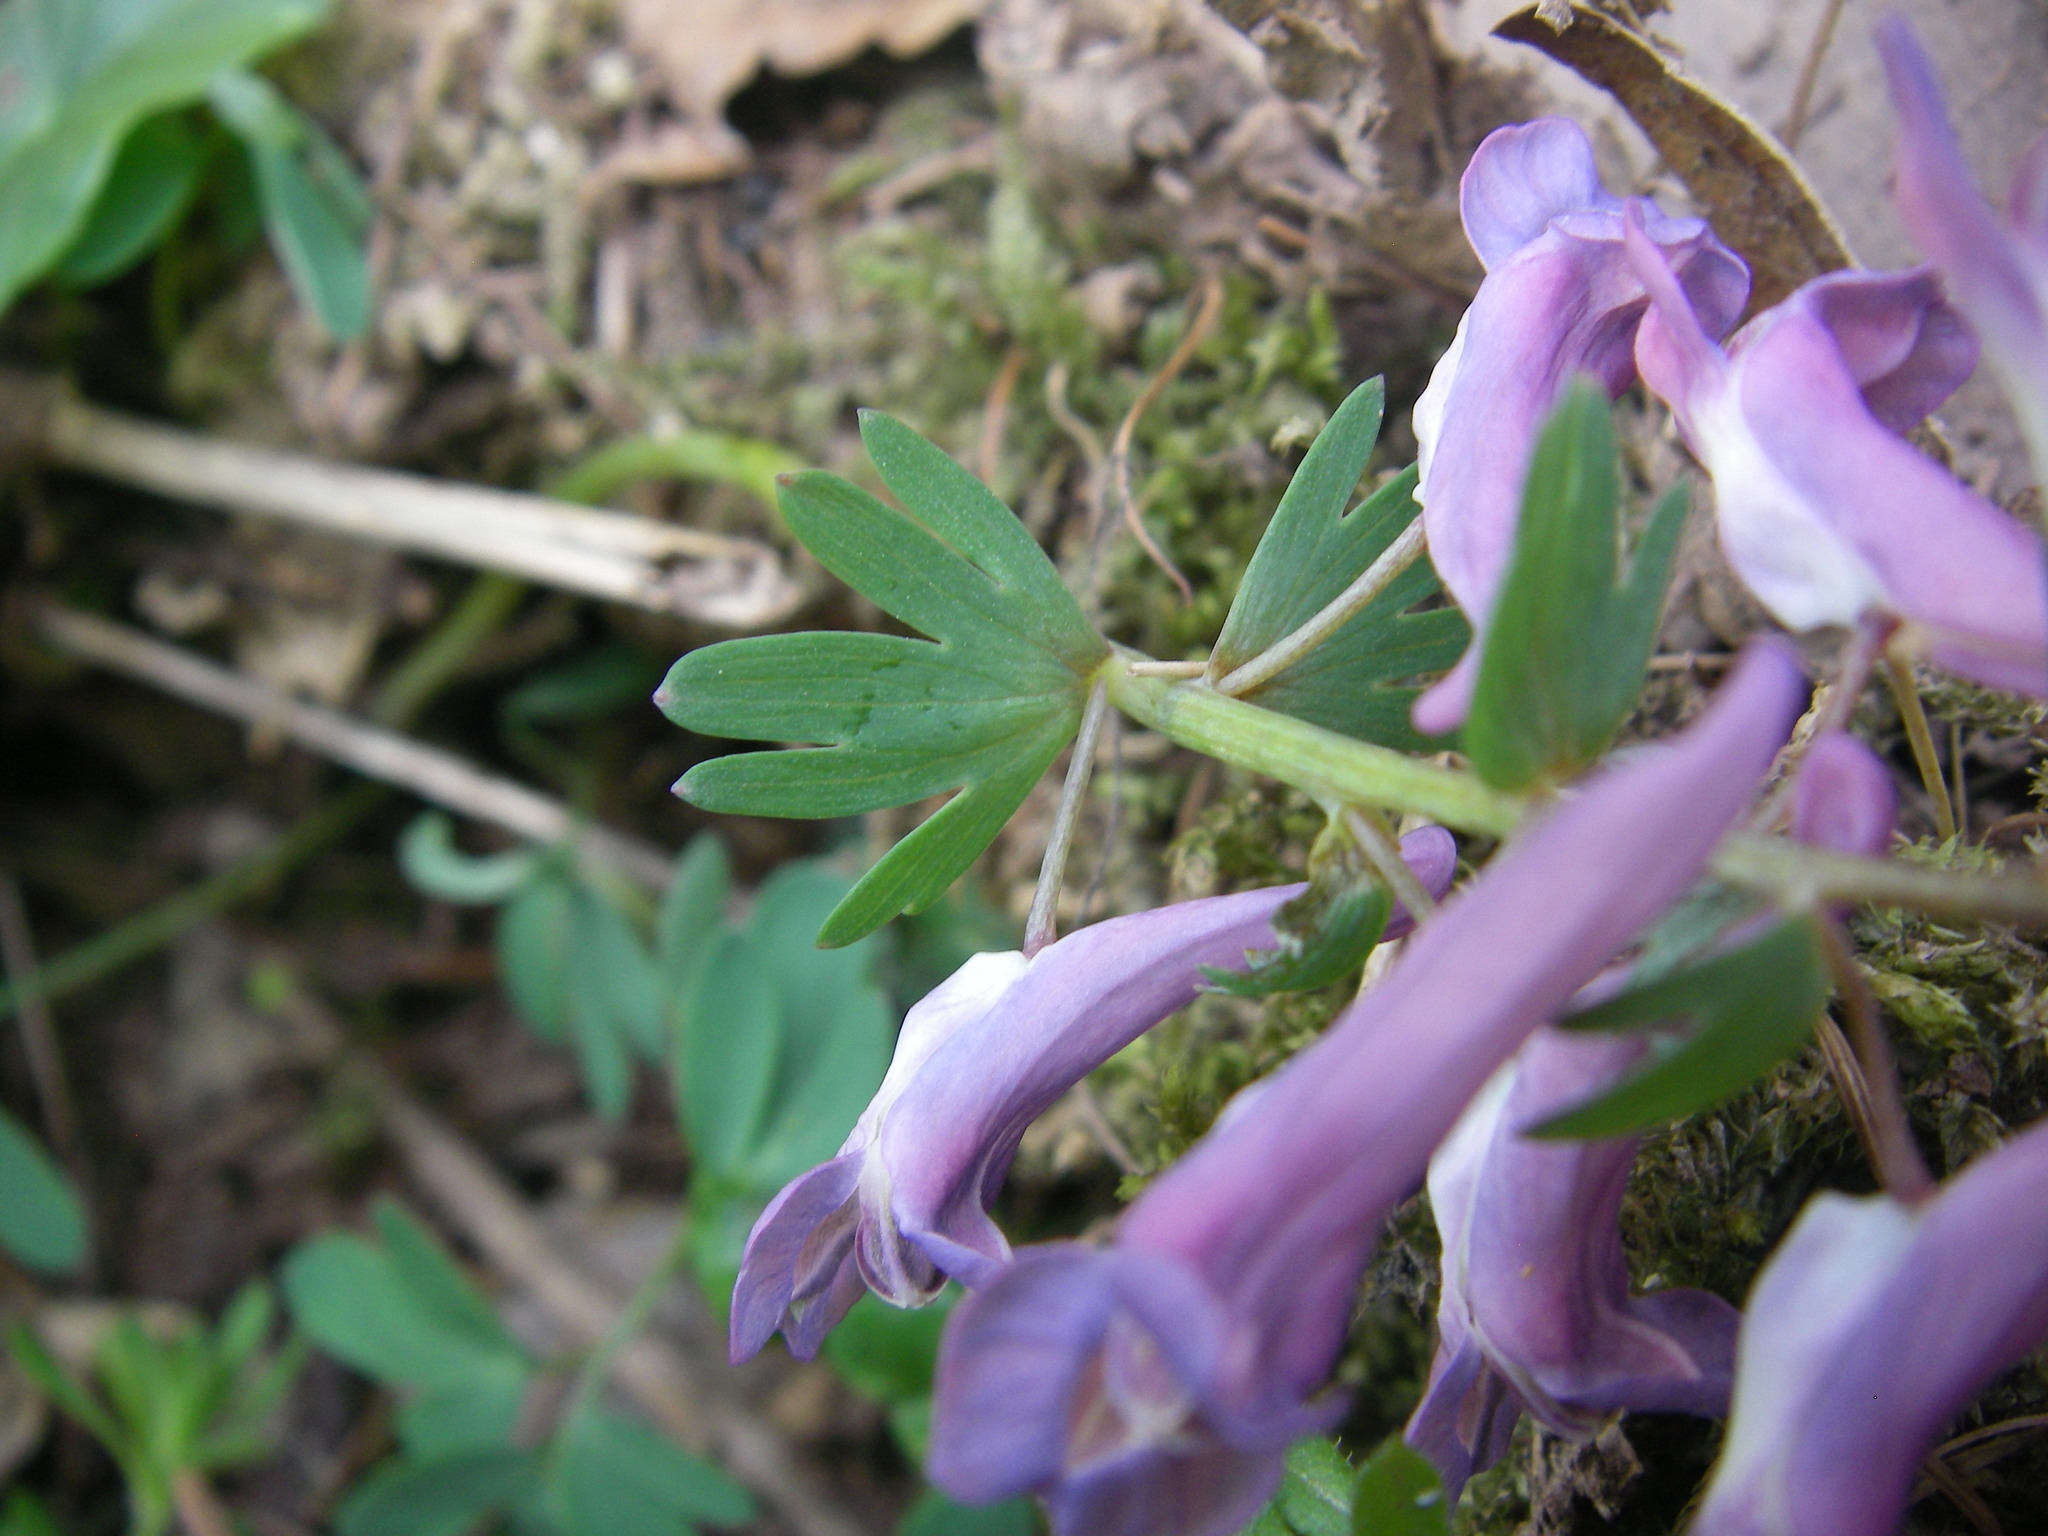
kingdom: Plantae
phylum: Tracheophyta
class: Magnoliopsida
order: Ranunculales
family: Papaveraceae
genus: Corydalis
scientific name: Corydalis solida
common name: Bird-in-a-bush
